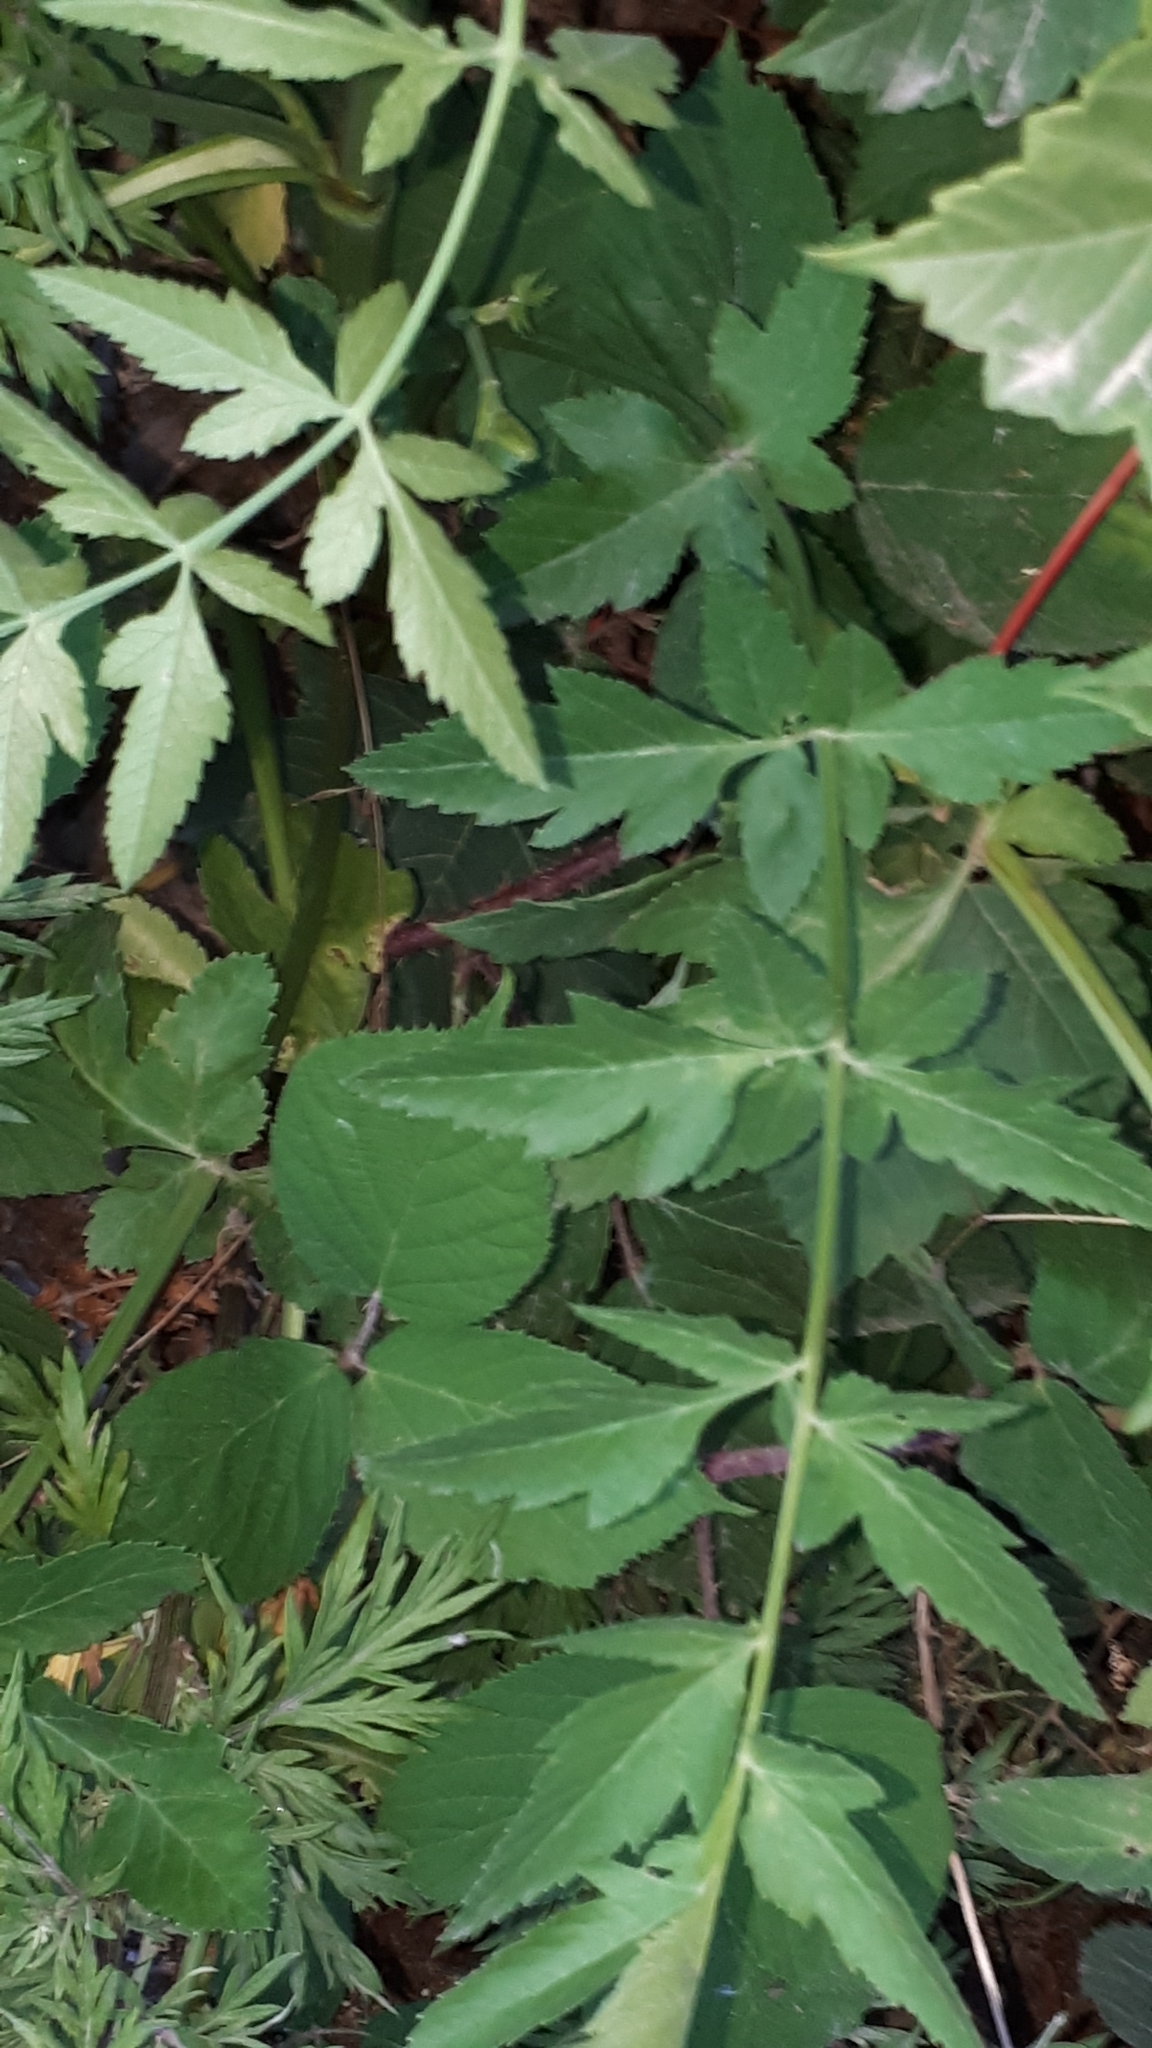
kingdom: Plantae
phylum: Tracheophyta
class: Magnoliopsida
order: Apiales
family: Apiaceae
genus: Pastinaca
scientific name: Pastinaca sativa
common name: Wild parsnip
